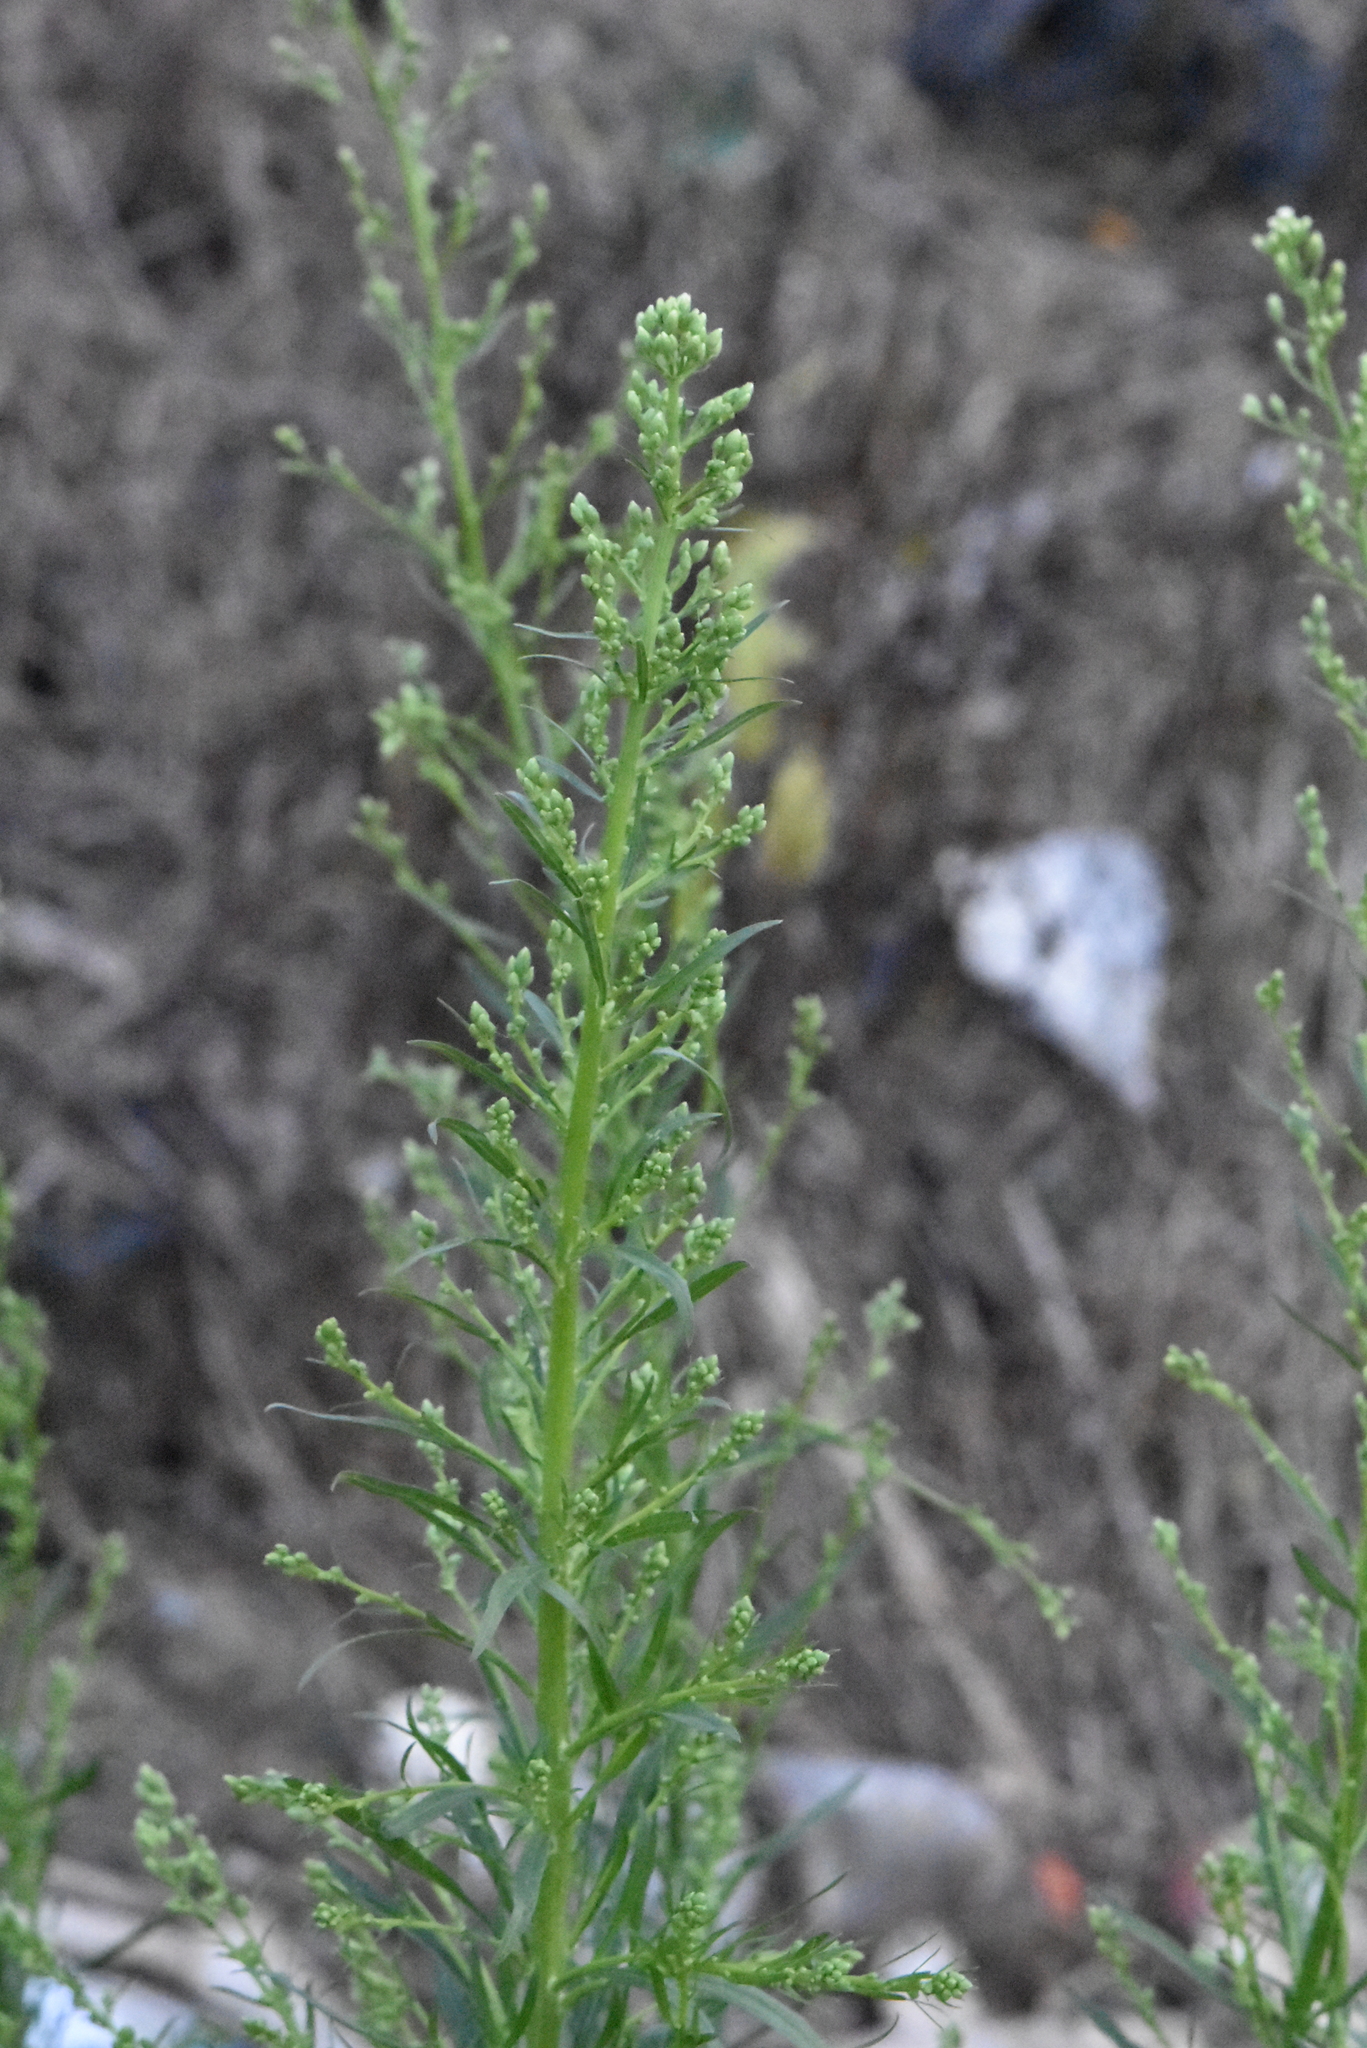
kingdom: Plantae
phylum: Tracheophyta
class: Magnoliopsida
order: Asterales
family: Asteraceae
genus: Erigeron
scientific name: Erigeron canadensis
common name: Canadian fleabane
